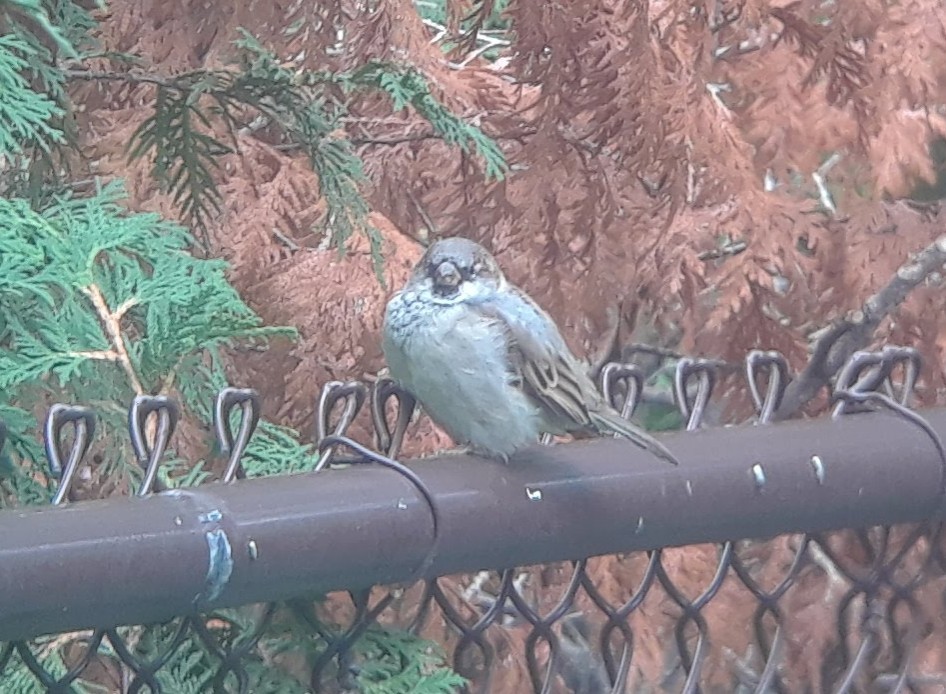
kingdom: Animalia
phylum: Chordata
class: Aves
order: Passeriformes
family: Passeridae
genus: Passer
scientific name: Passer domesticus
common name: House sparrow
